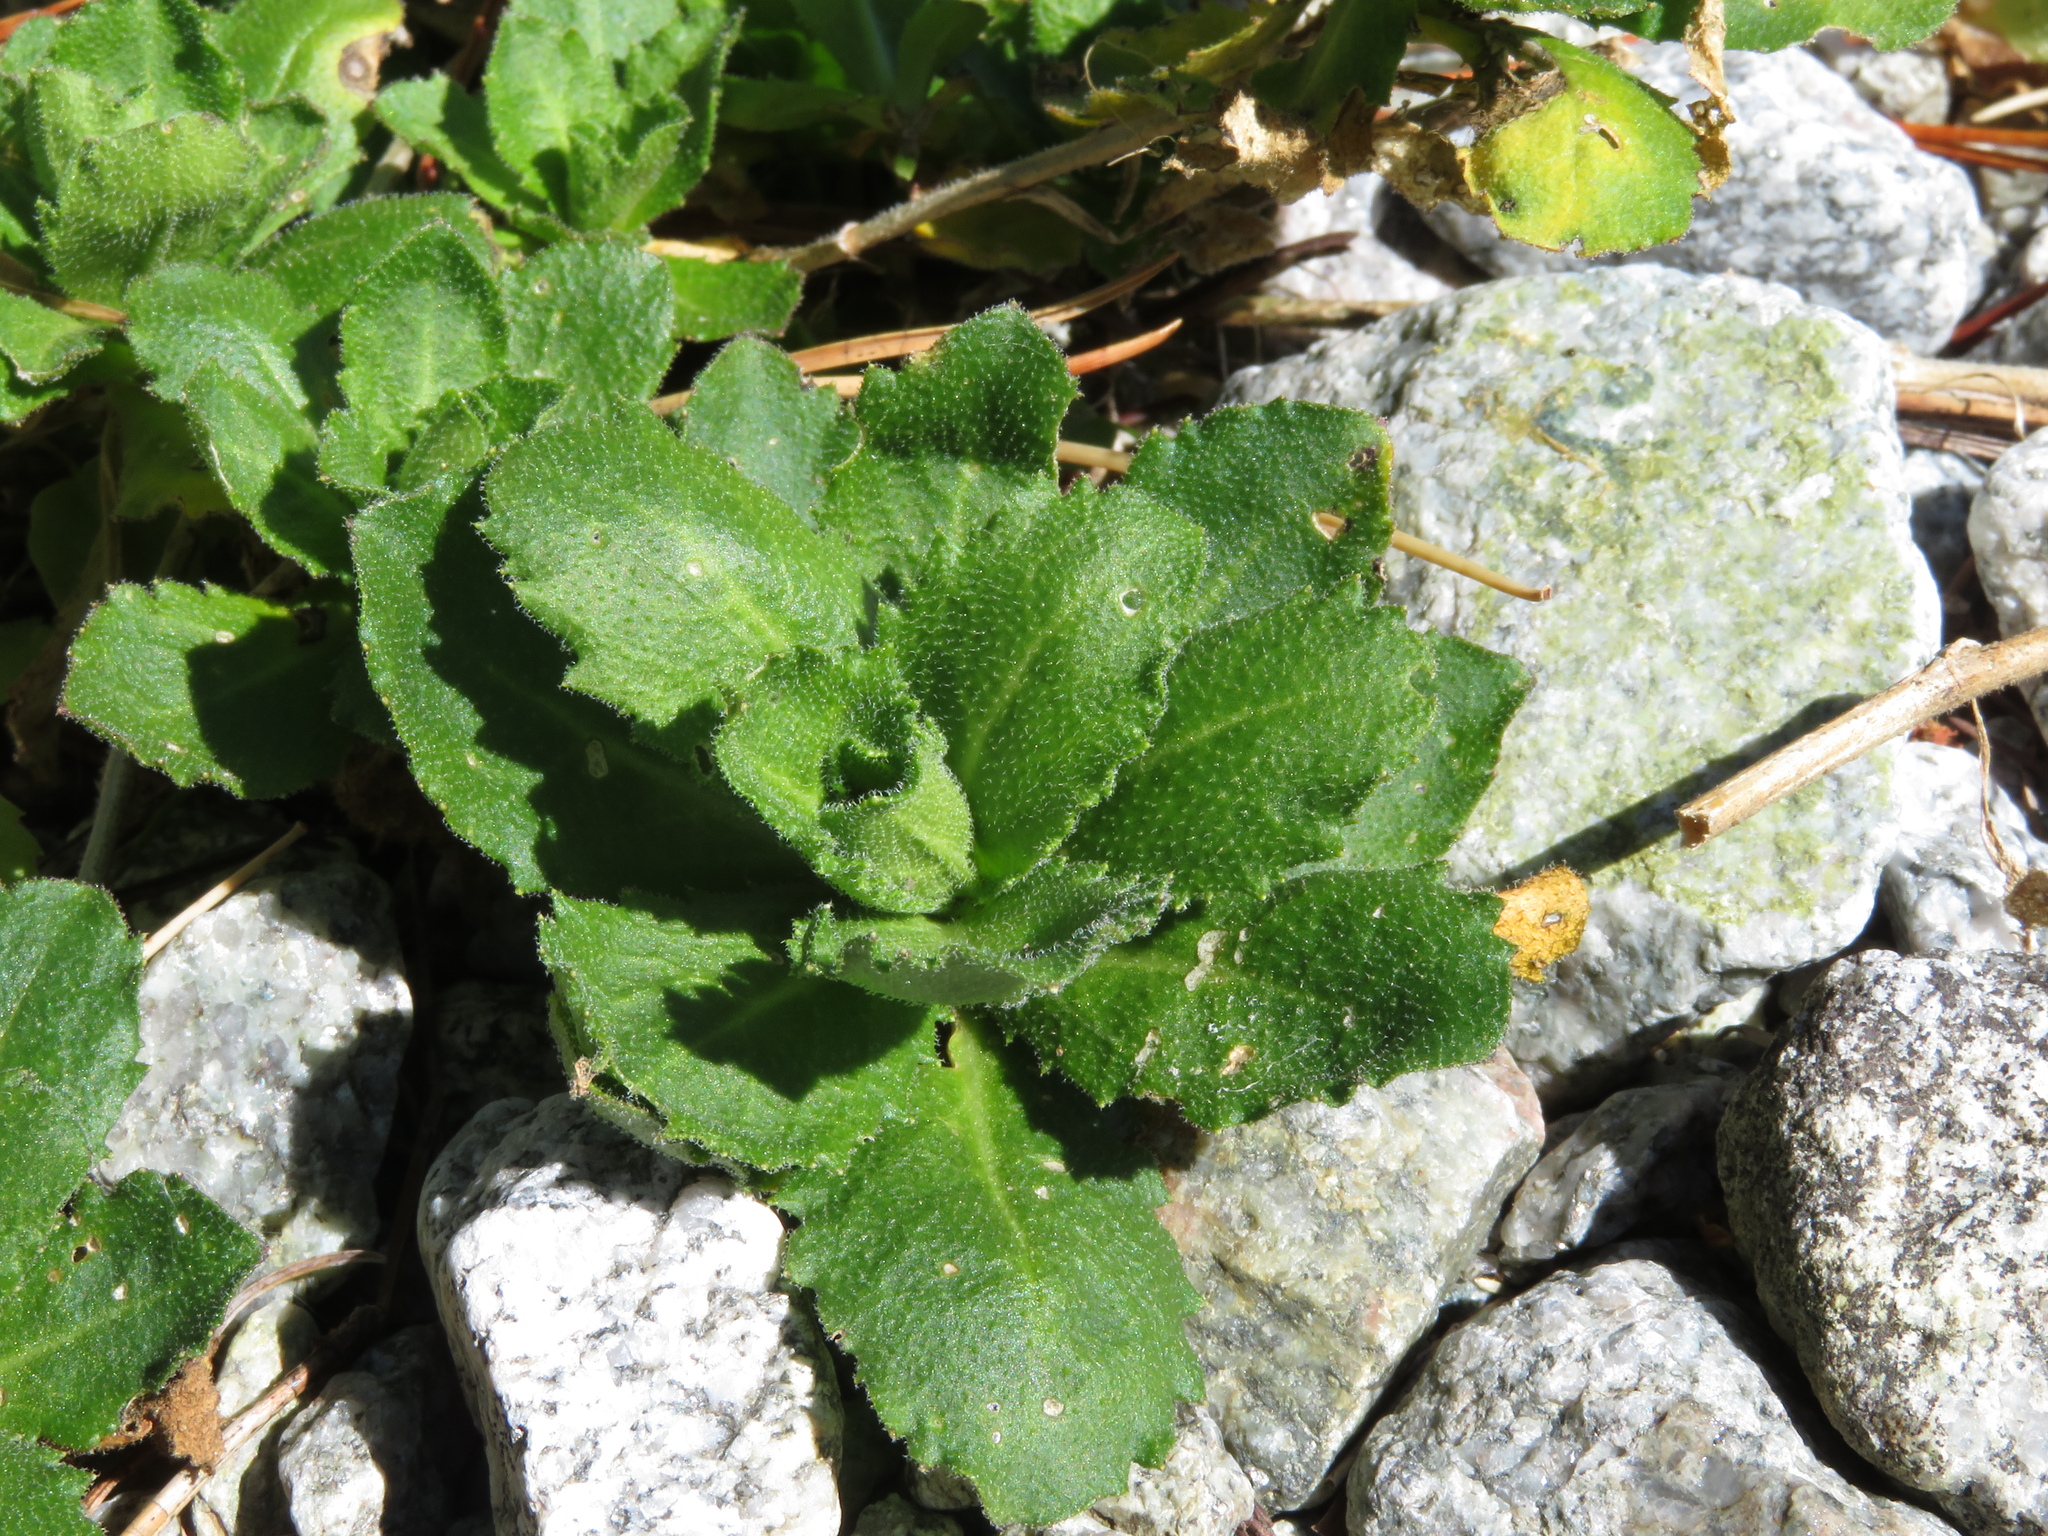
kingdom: Plantae
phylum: Tracheophyta
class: Magnoliopsida
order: Brassicales
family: Brassicaceae
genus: Arabis
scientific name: Arabis alpina
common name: Alpine rock-cress
